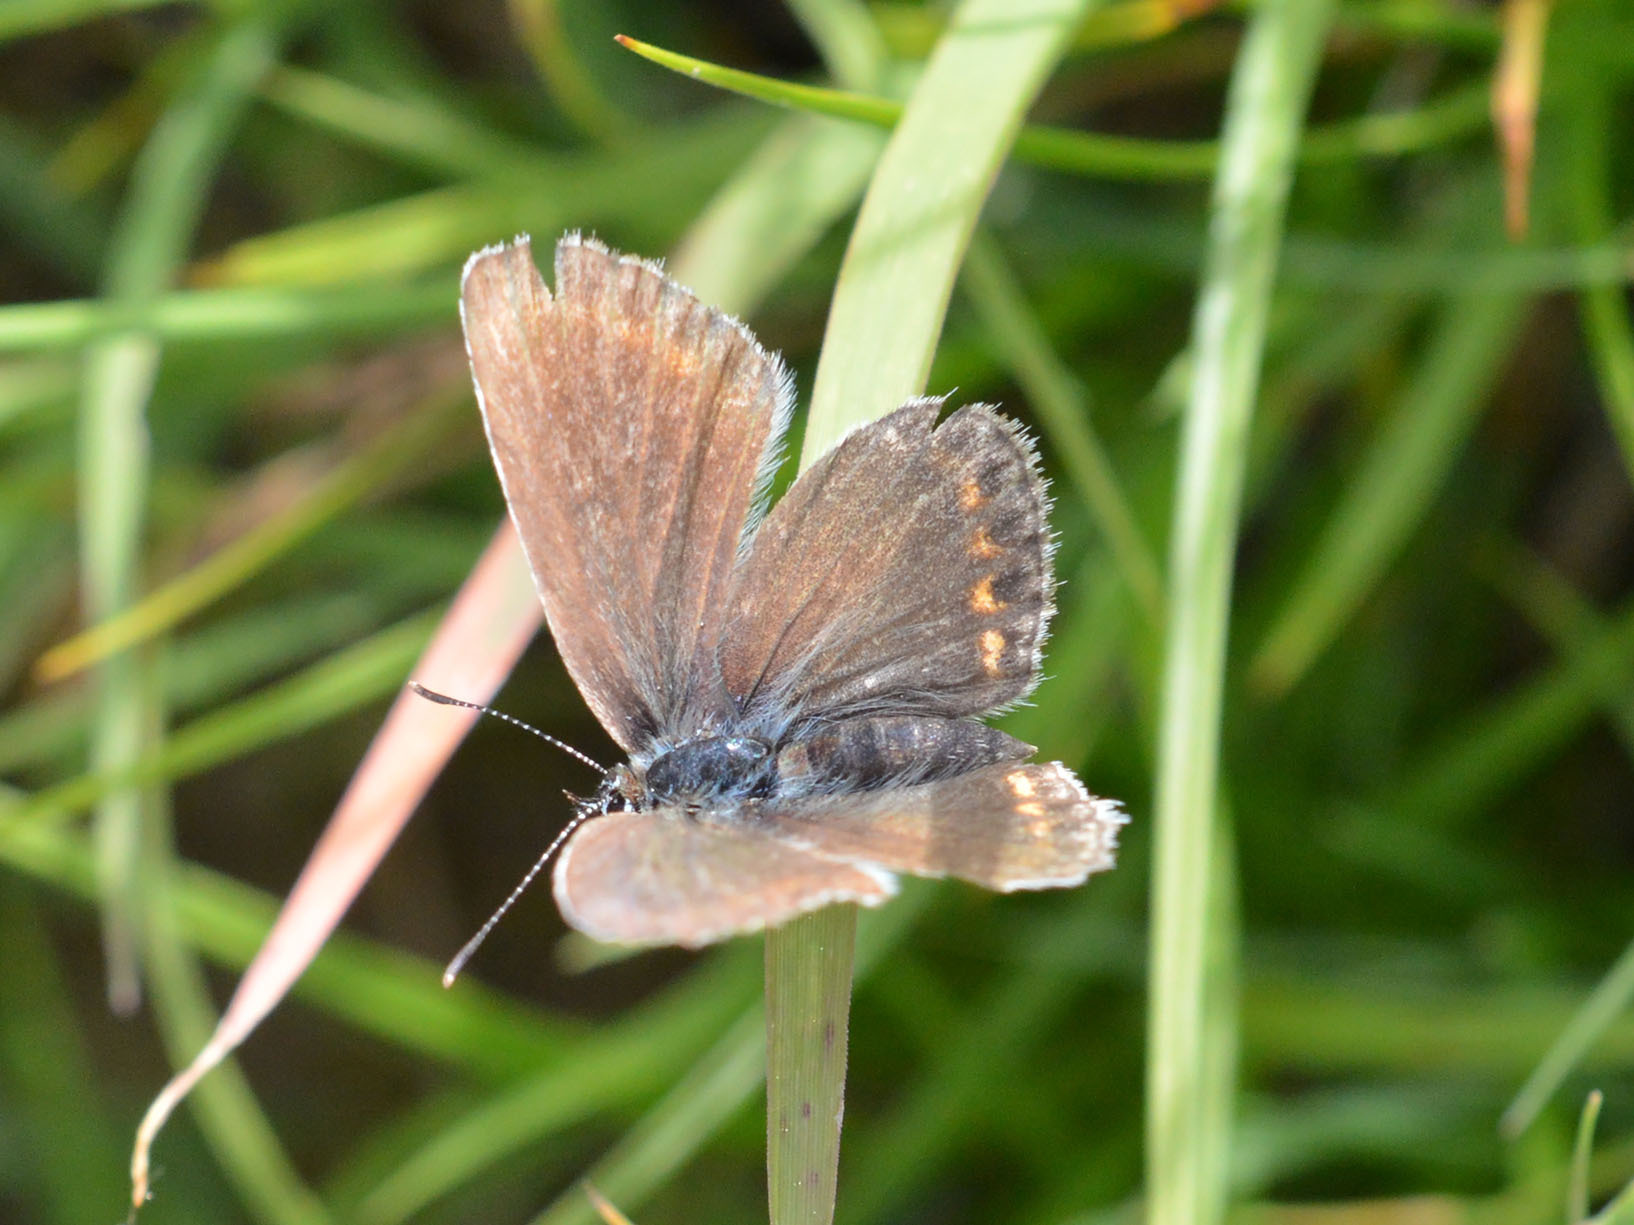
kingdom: Animalia
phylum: Arthropoda
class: Insecta
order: Lepidoptera
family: Lycaenidae
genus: Plebejus
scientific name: Plebejus argus
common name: Silver-studded blue
